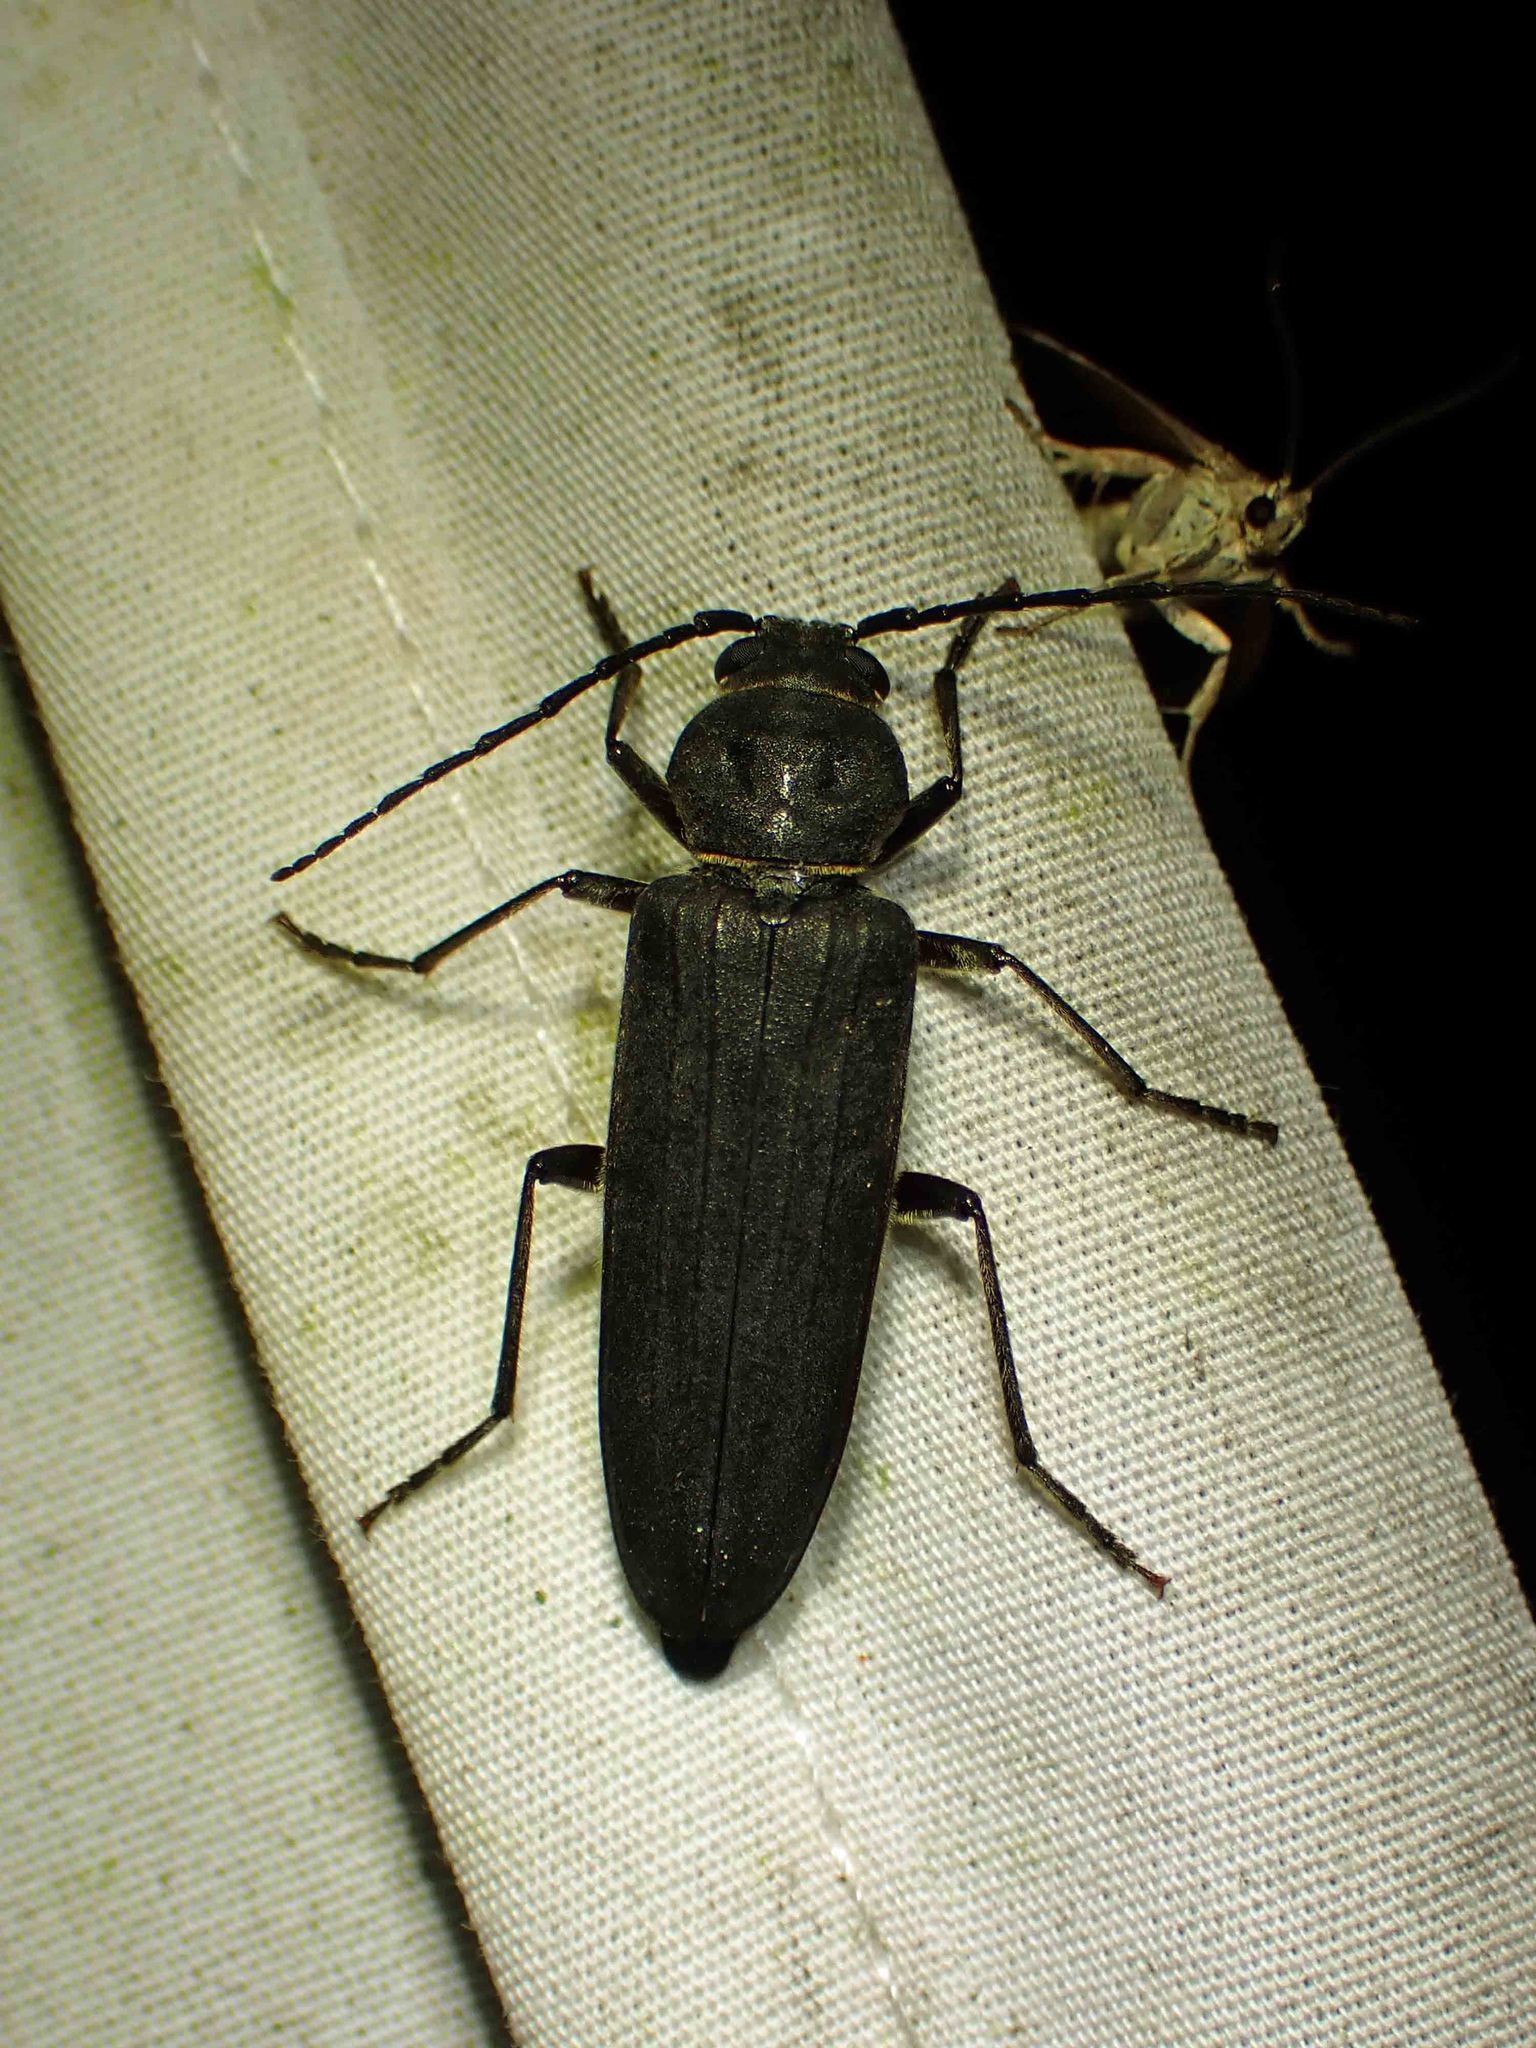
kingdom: Animalia
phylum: Arthropoda
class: Insecta
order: Coleoptera
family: Cerambycidae
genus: Arhopalus
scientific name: Arhopalus foveicollis
